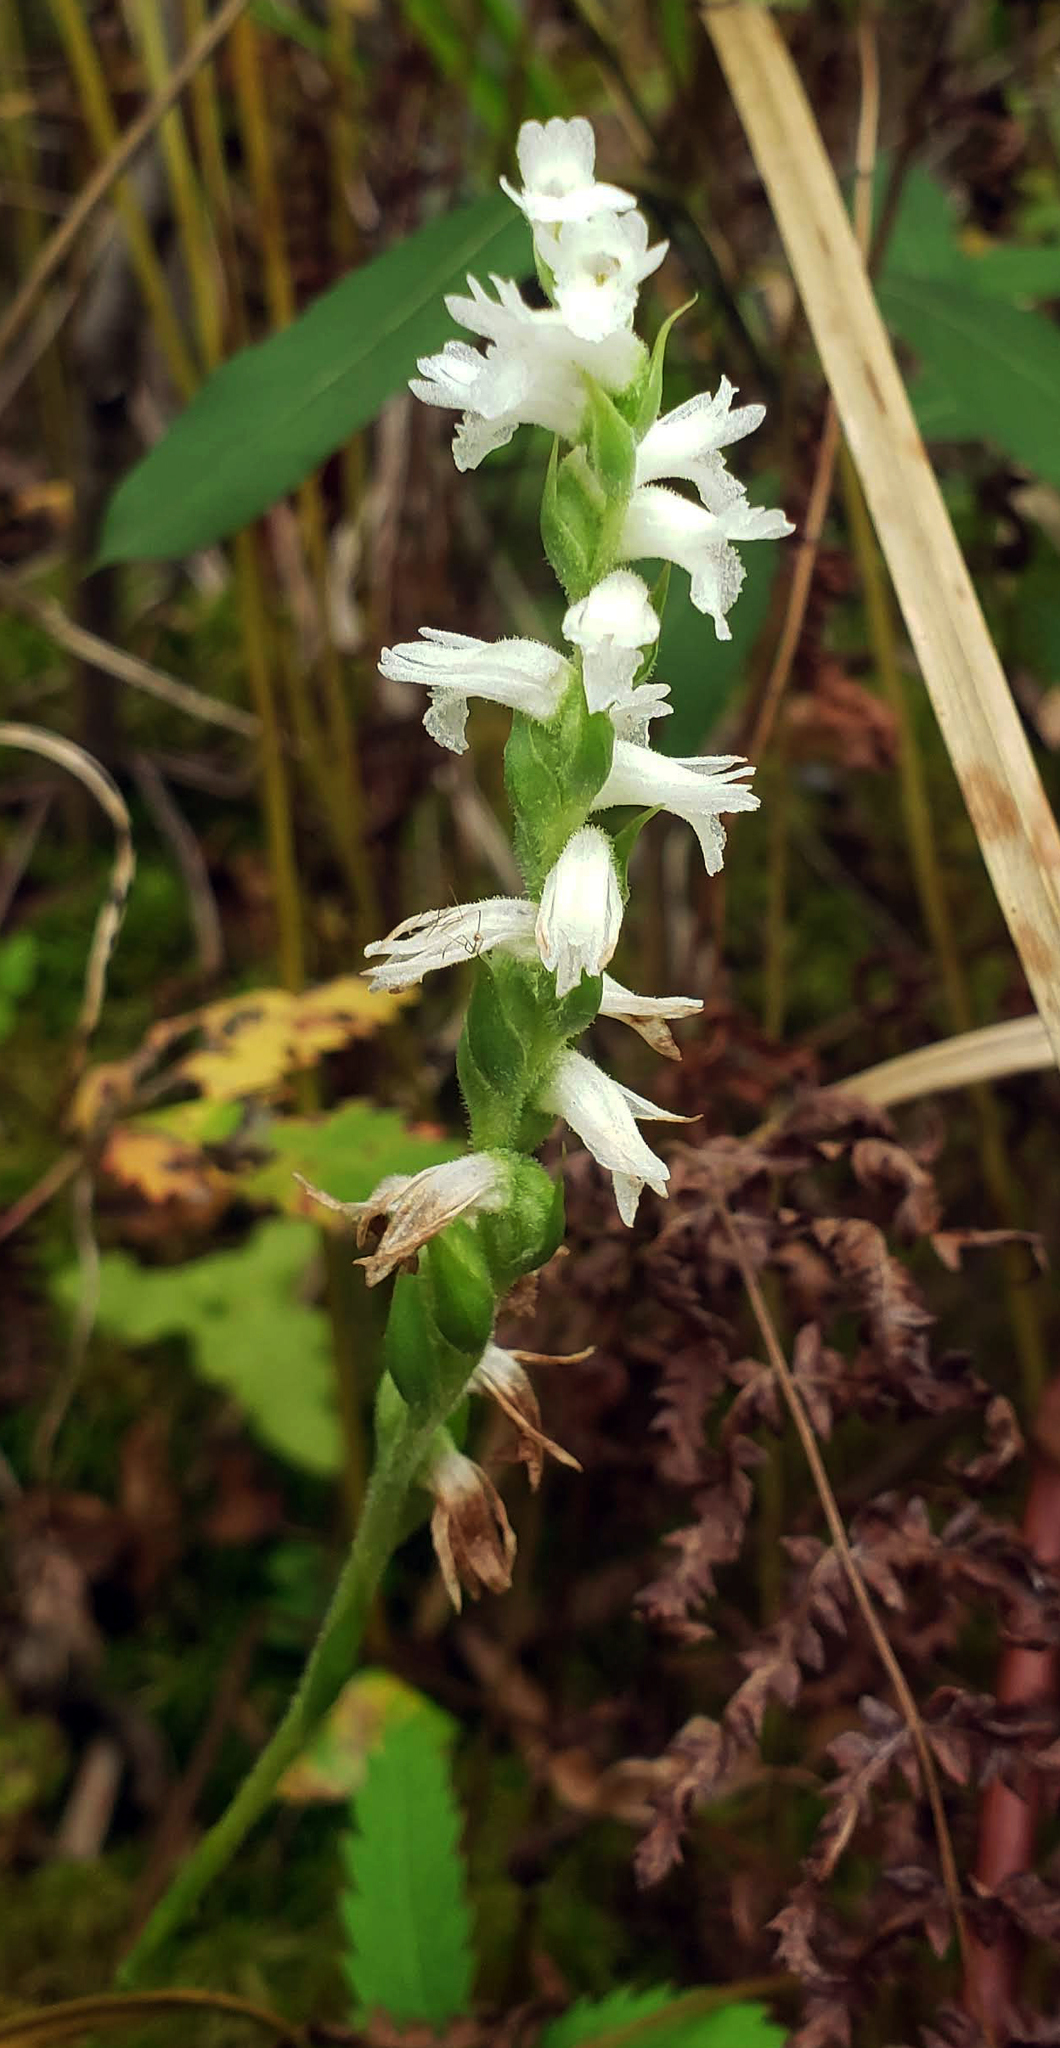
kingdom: Plantae
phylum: Tracheophyta
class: Liliopsida
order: Asparagales
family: Orchidaceae
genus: Spiranthes
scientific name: Spiranthes incurva
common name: Sphinx ladies'-tresses
